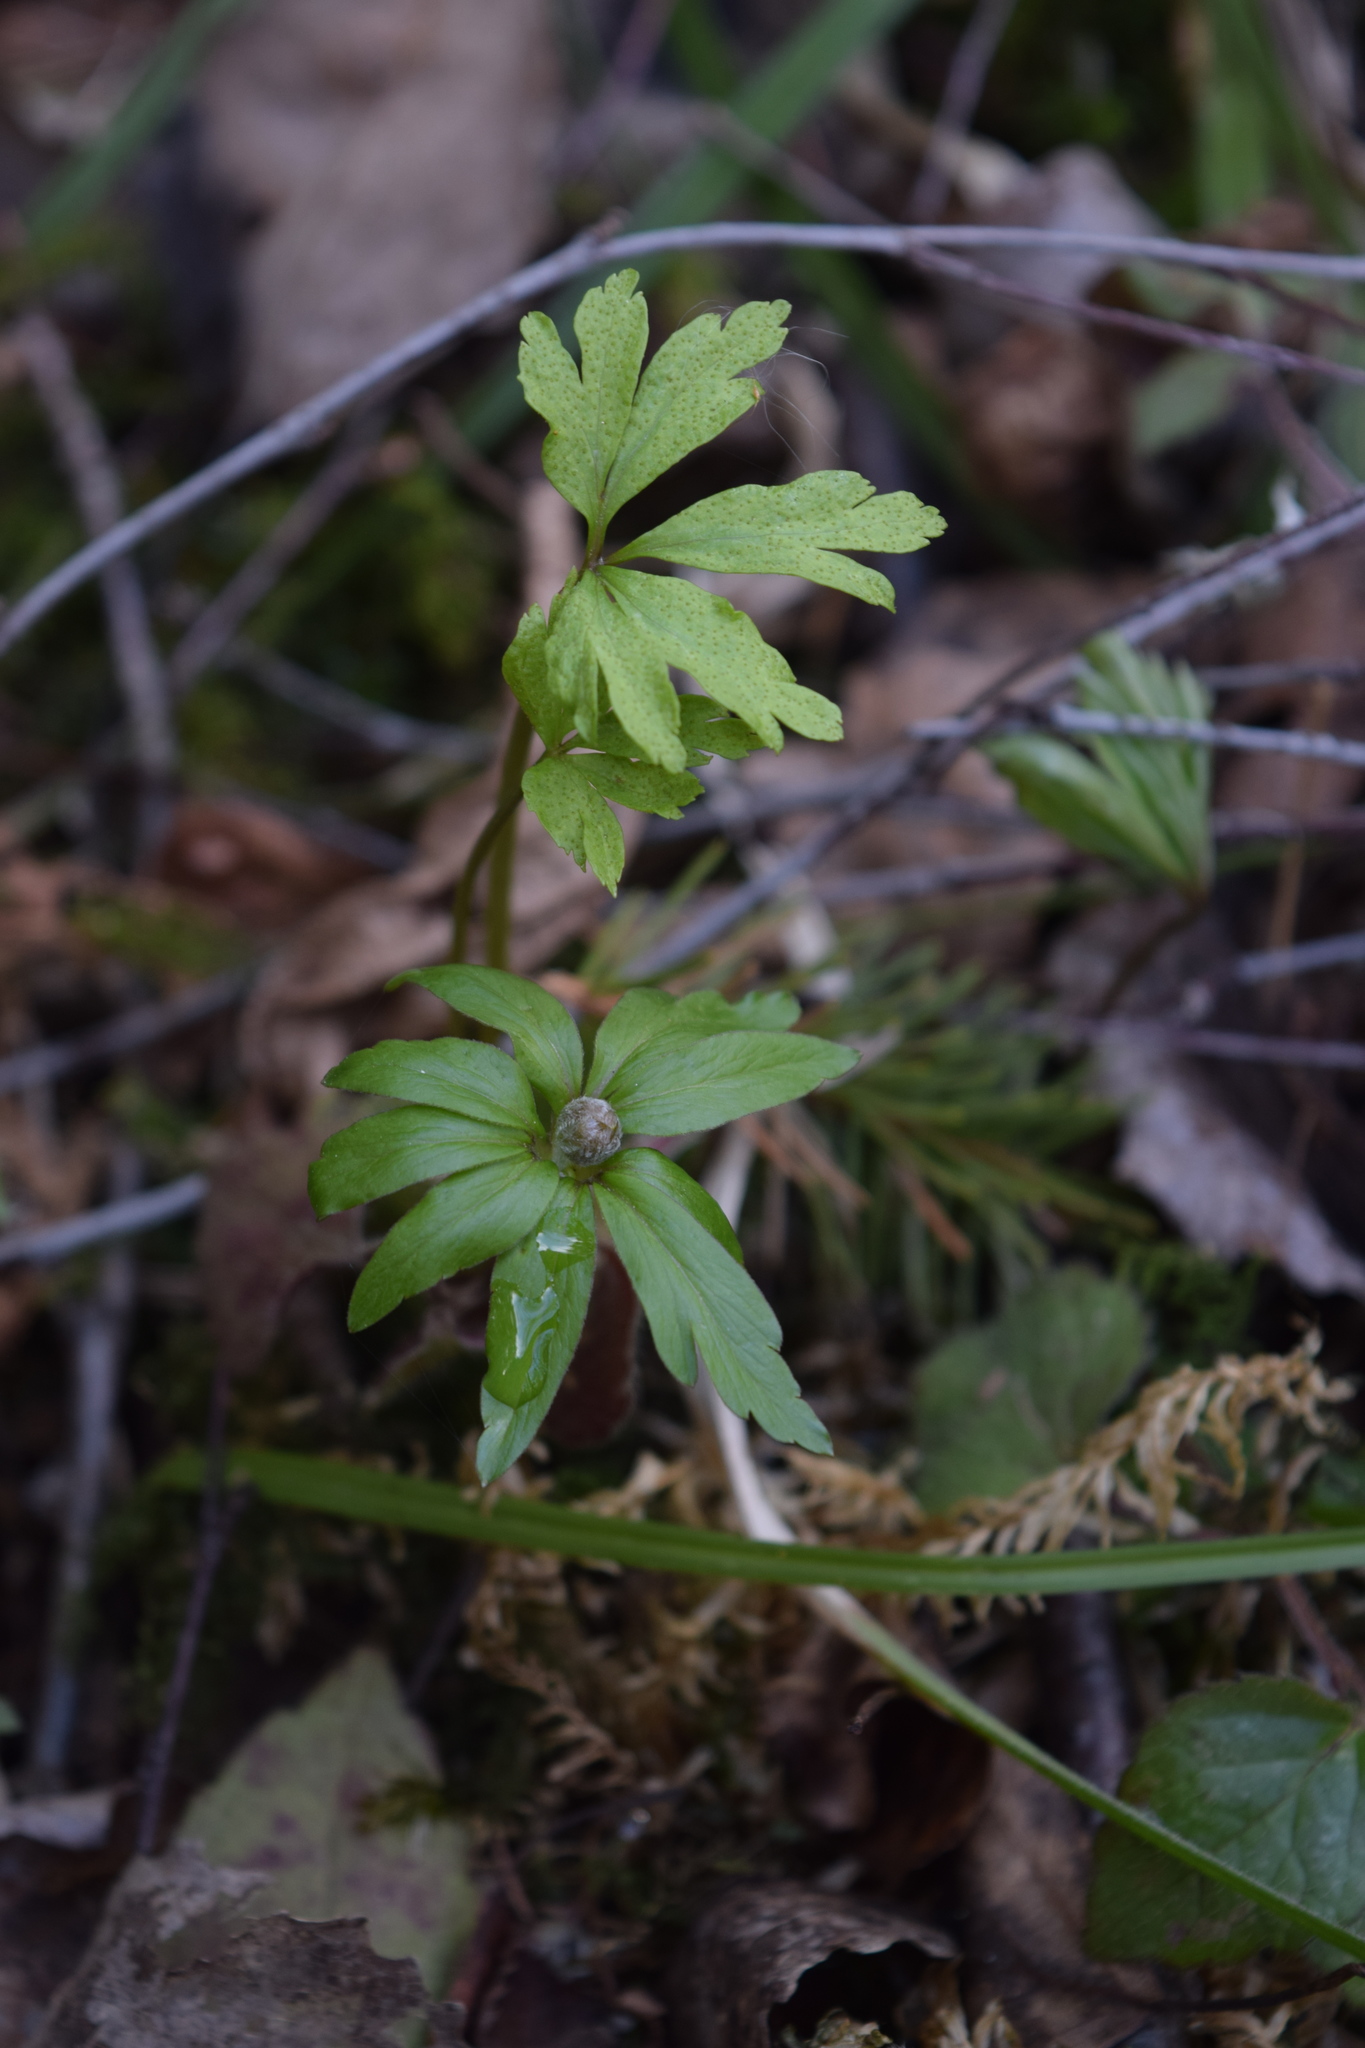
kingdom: Plantae
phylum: Tracheophyta
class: Magnoliopsida
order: Ranunculales
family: Ranunculaceae
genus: Anemone
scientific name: Anemone ranunculoides
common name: Yellow anemone
